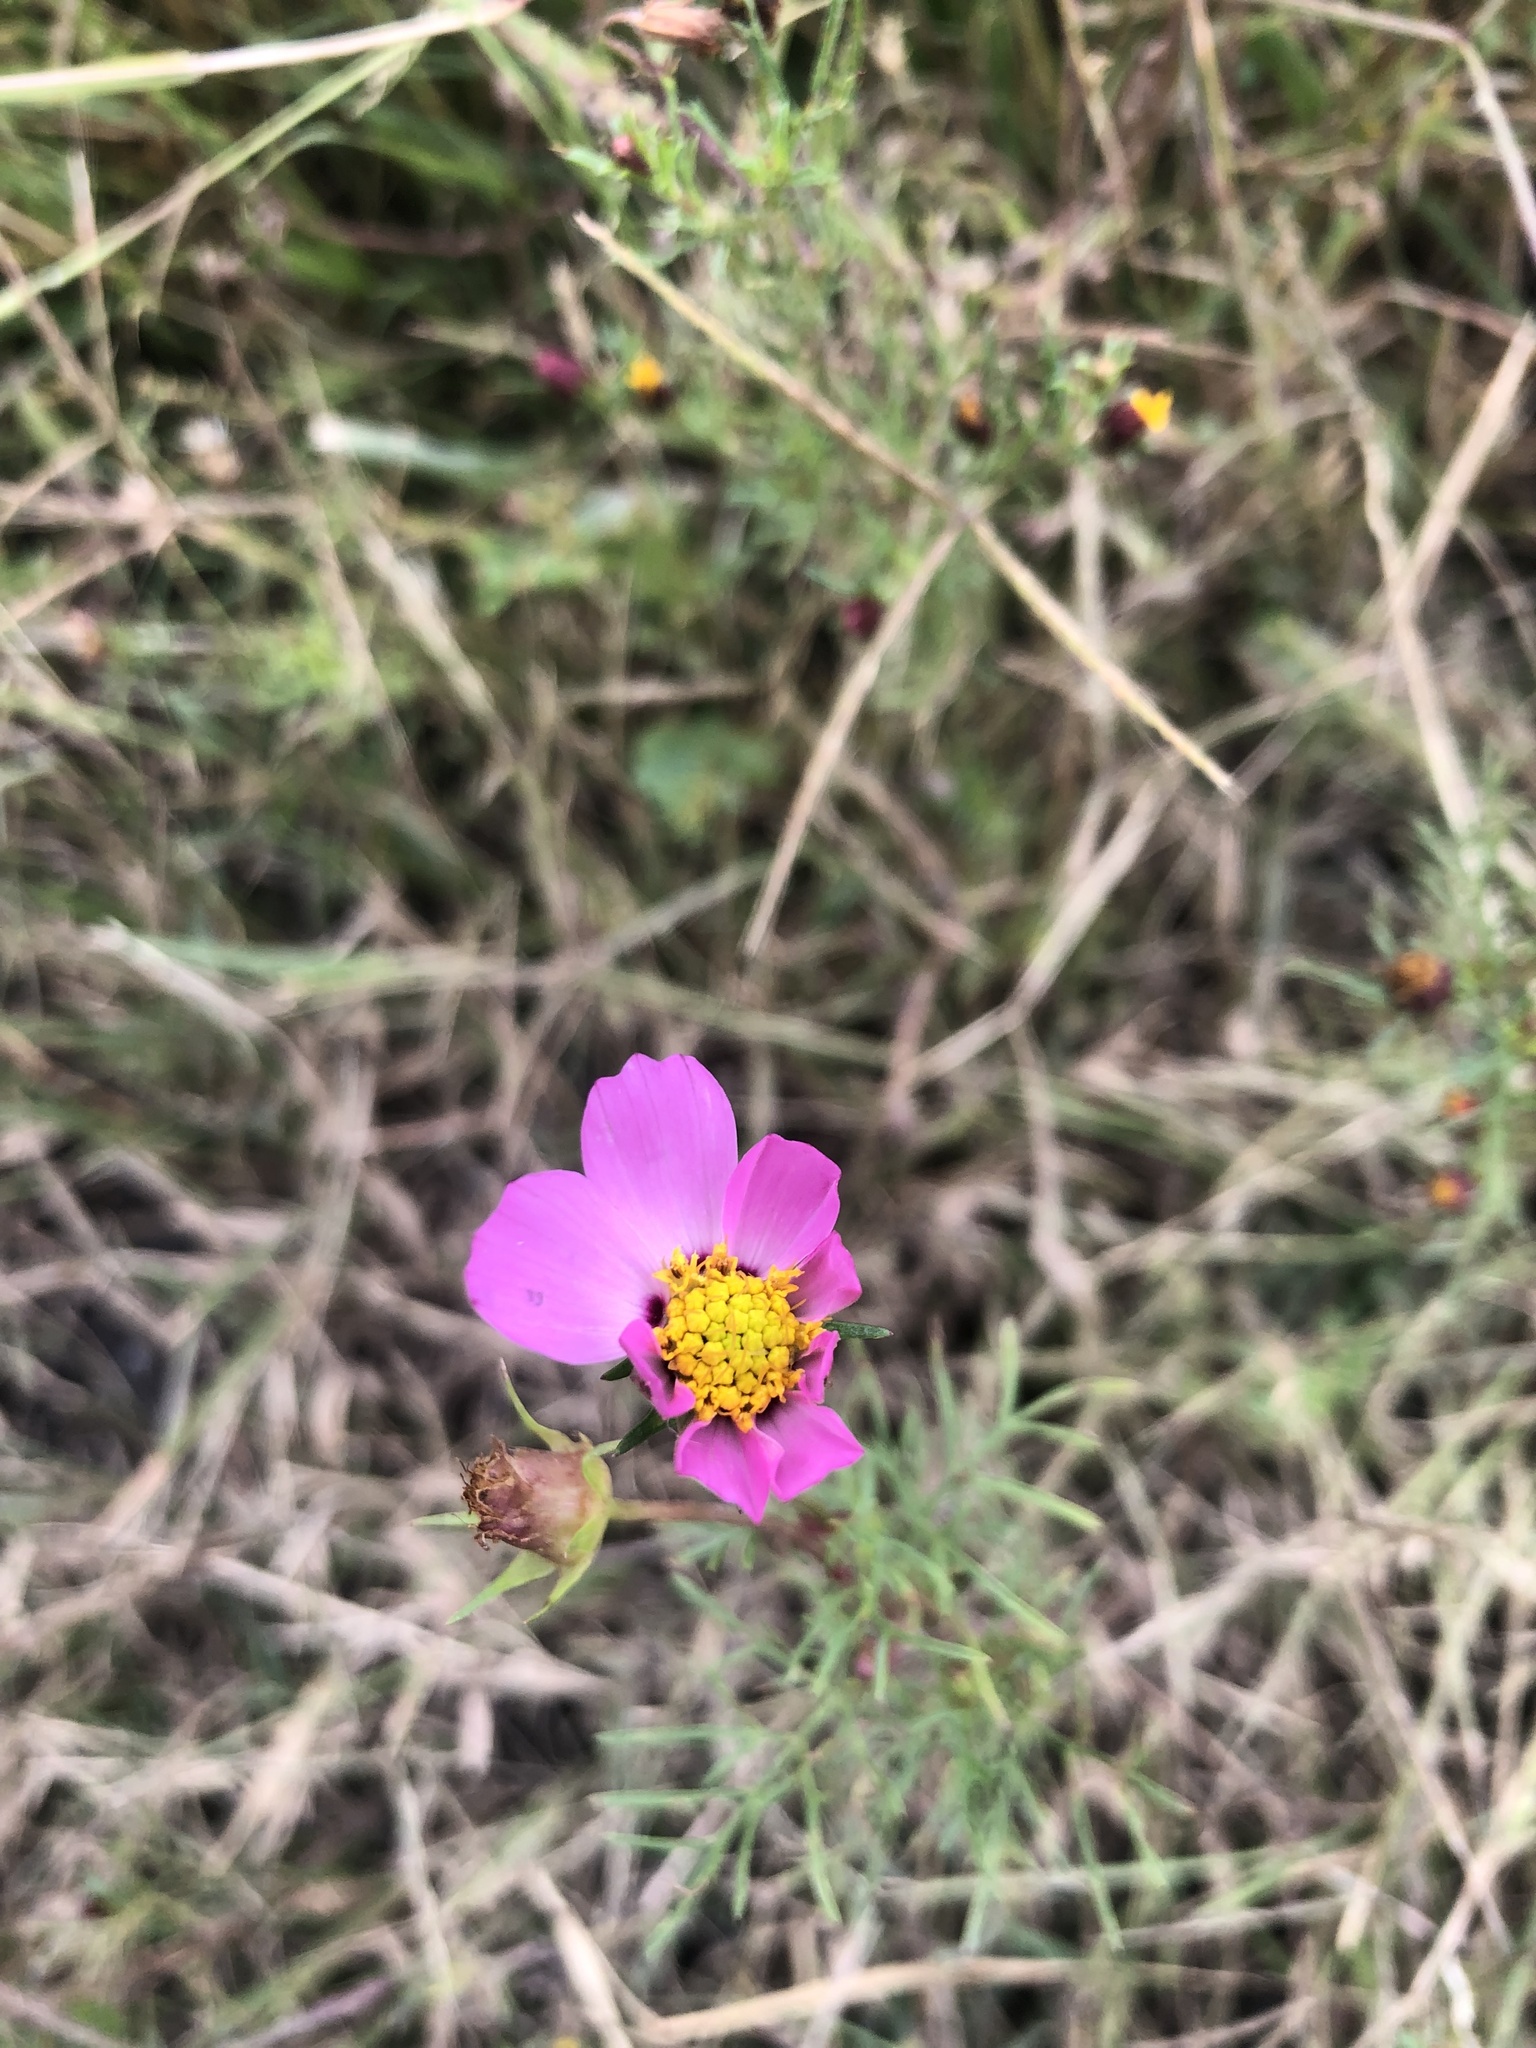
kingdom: Plantae
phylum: Tracheophyta
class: Magnoliopsida
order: Asterales
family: Asteraceae
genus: Cosmos
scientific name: Cosmos bipinnatus
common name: Garden cosmos
